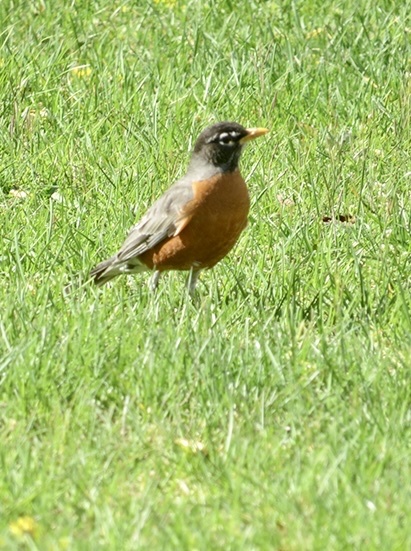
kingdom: Animalia
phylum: Chordata
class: Aves
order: Passeriformes
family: Turdidae
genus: Turdus
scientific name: Turdus migratorius
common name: American robin
